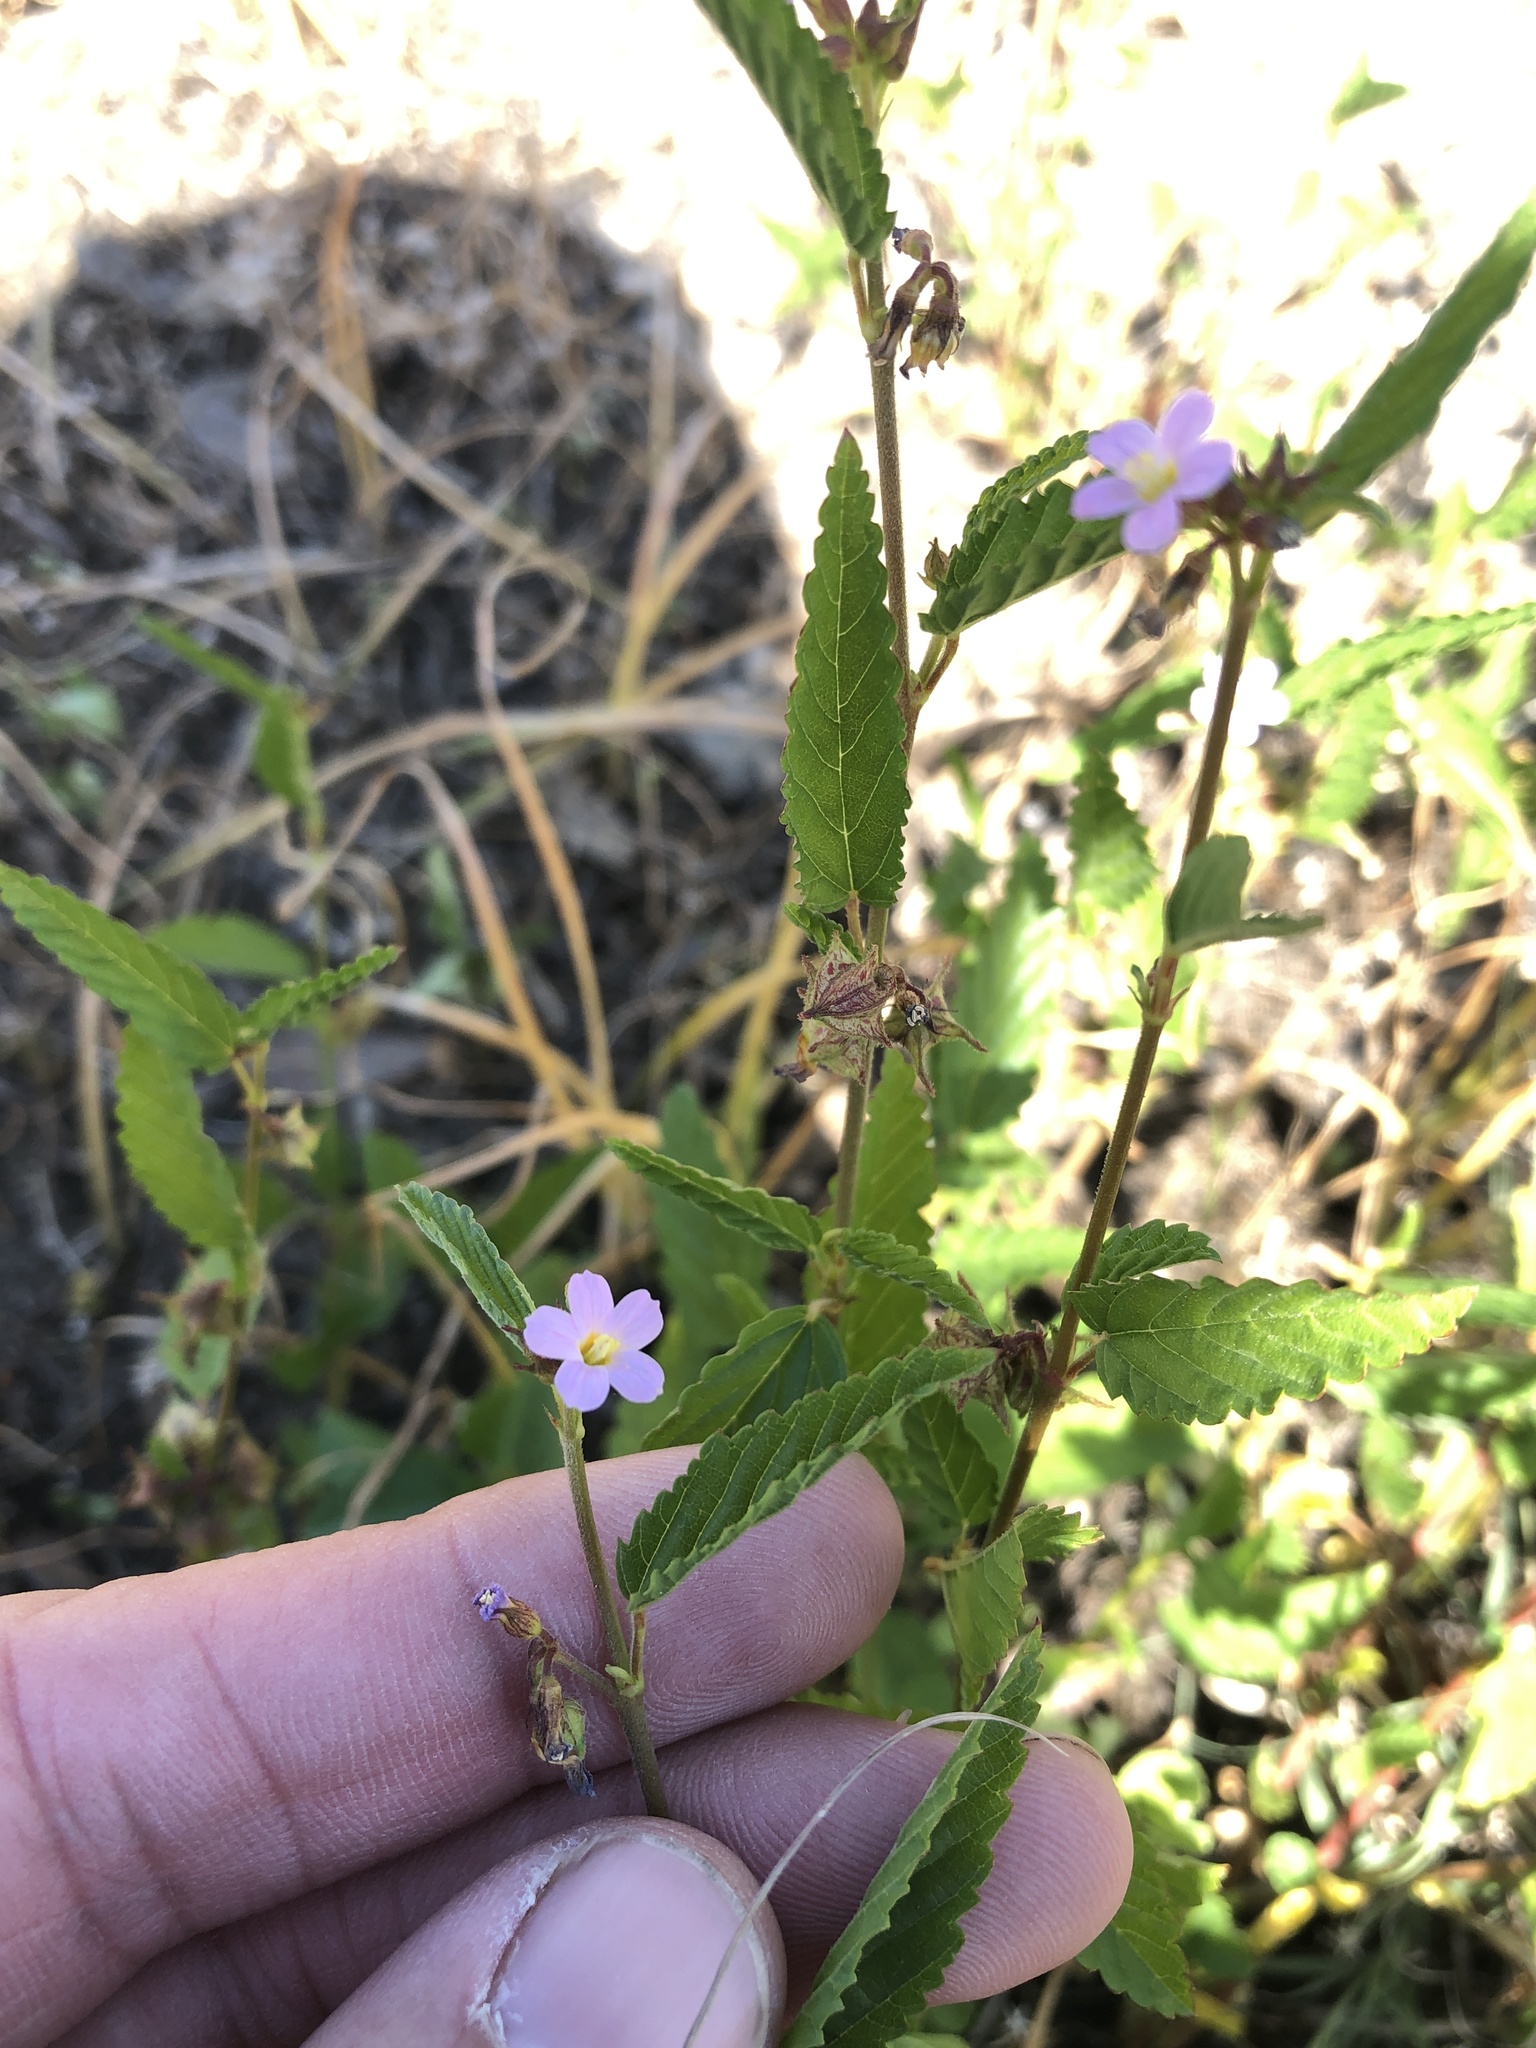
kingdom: Plantae
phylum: Tracheophyta
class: Magnoliopsida
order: Malvales
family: Malvaceae
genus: Melochia
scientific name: Melochia pyramidata
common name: Pyramidflower
